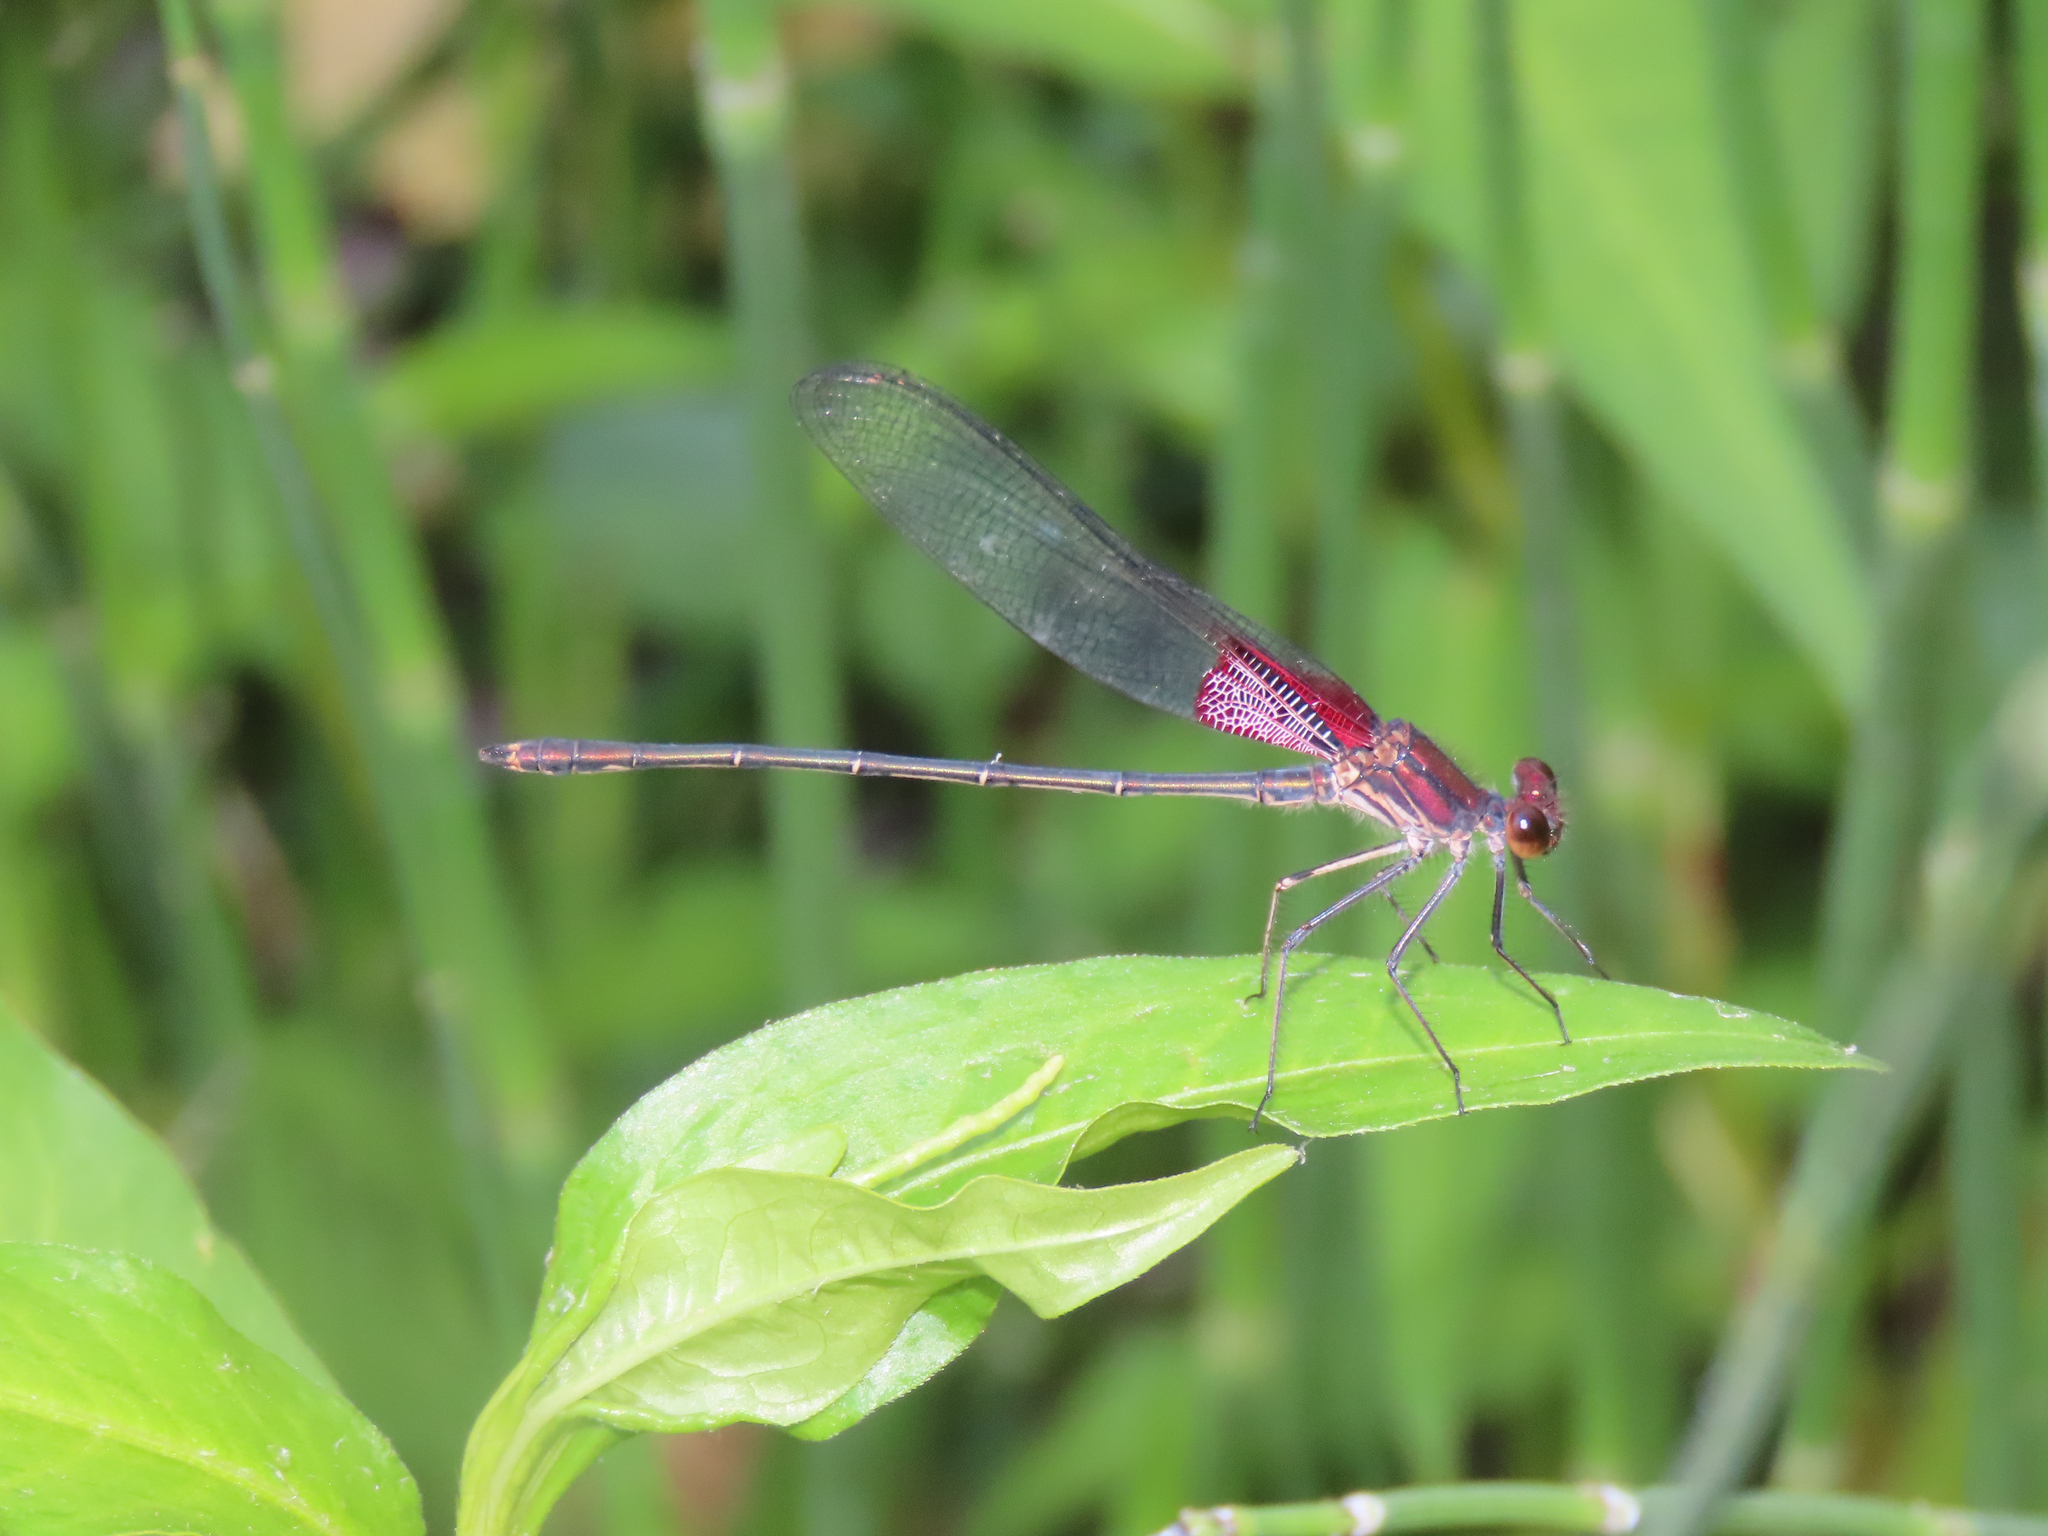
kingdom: Animalia
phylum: Arthropoda
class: Insecta
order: Odonata
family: Calopterygidae
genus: Hetaerina
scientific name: Hetaerina americana
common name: American rubyspot
